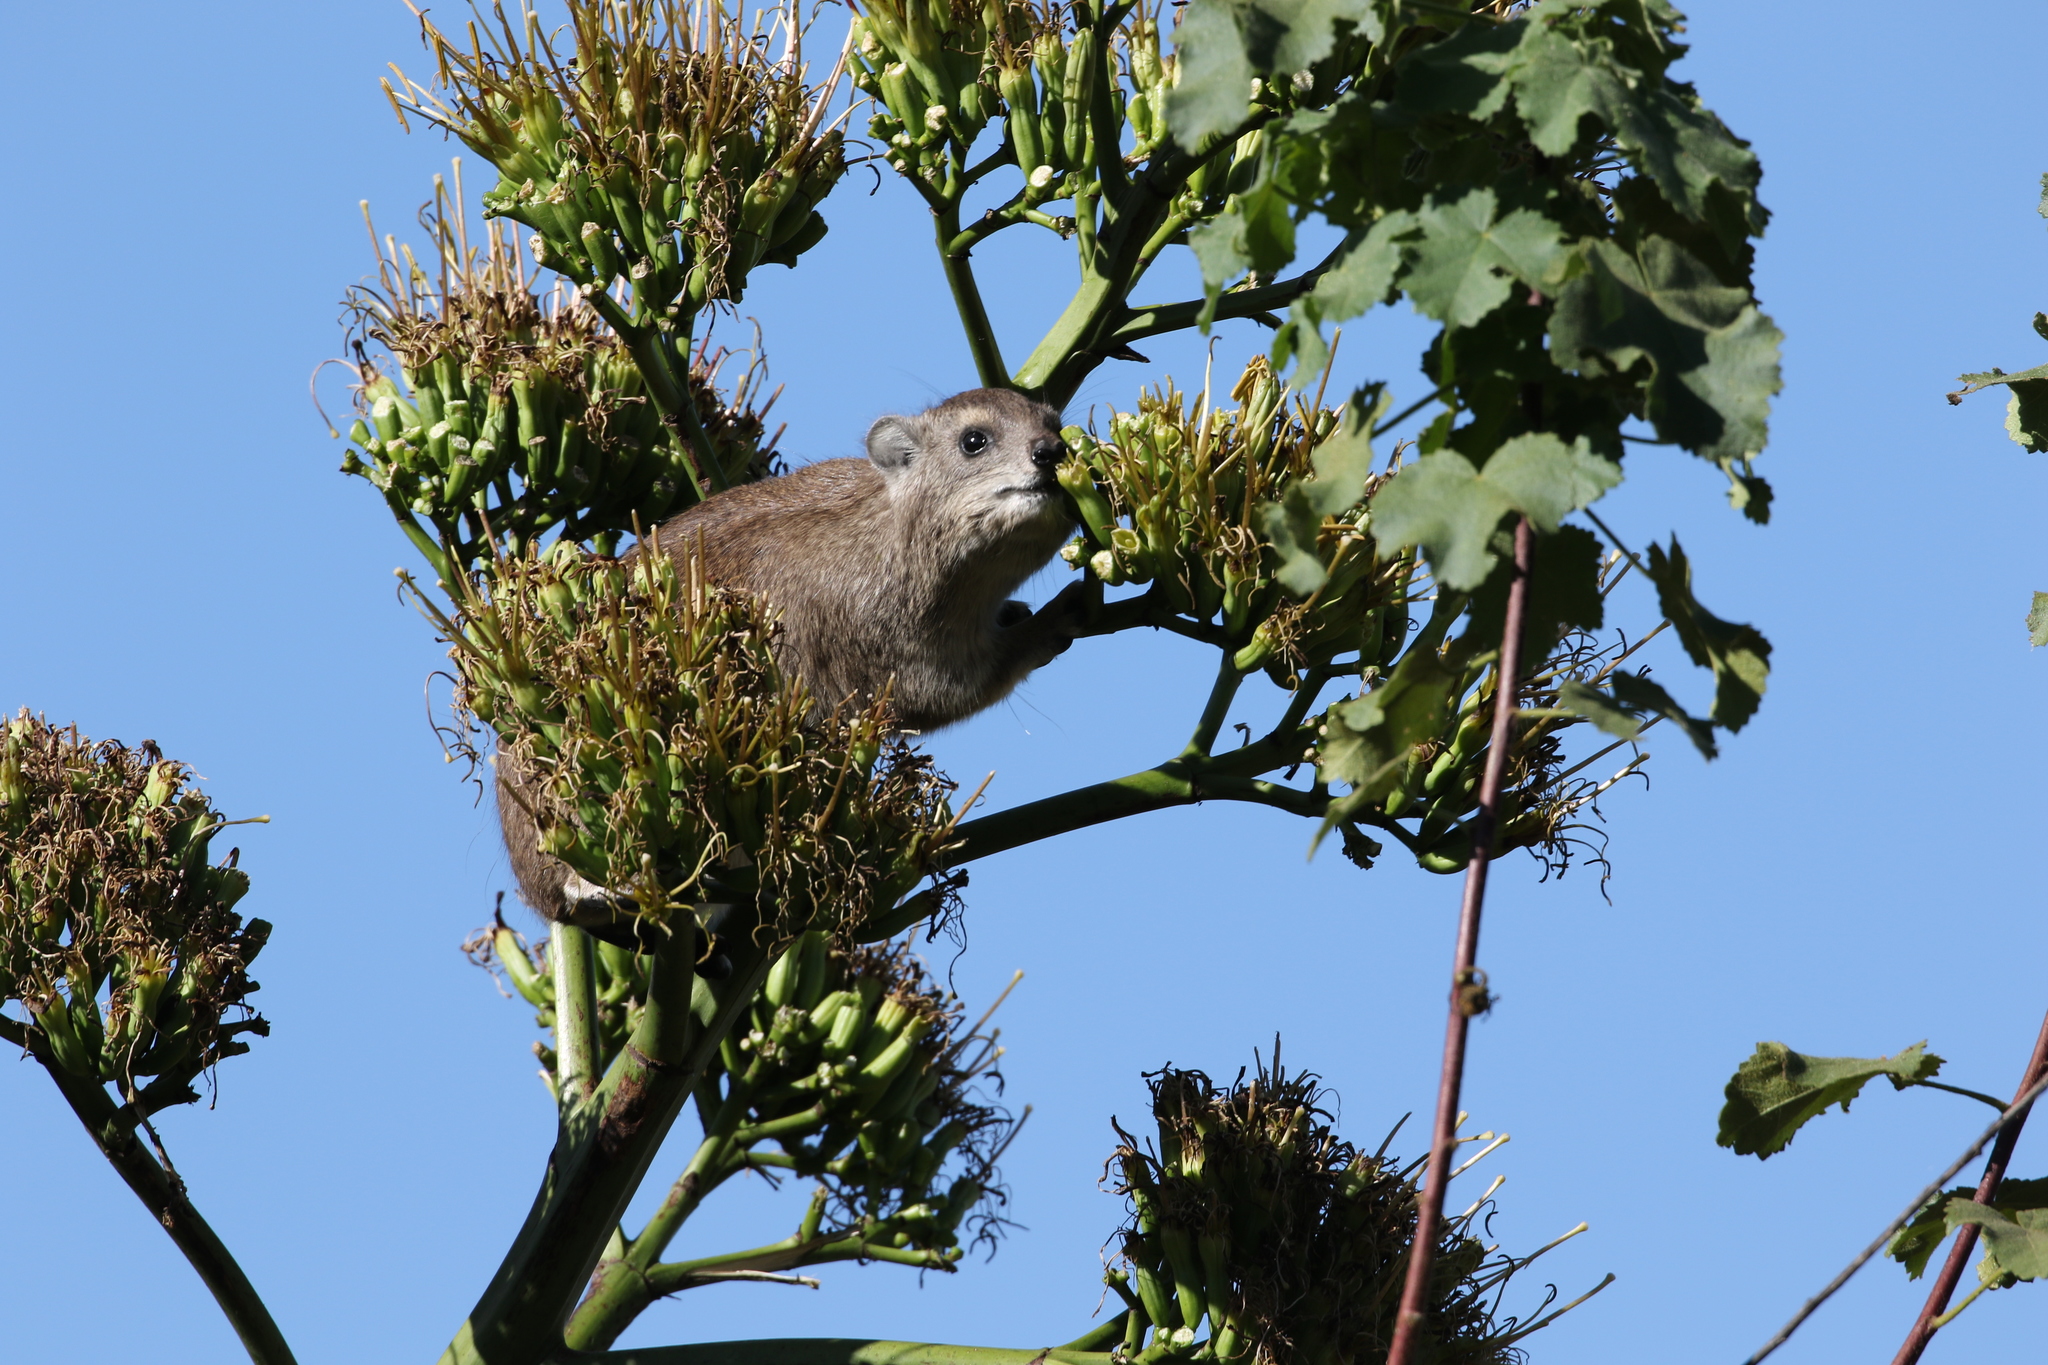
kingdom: Animalia
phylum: Chordata
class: Mammalia
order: Hyracoidea
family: Procaviidae
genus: Heterohyrax
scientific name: Heterohyrax brucei
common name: Bush hyrax
